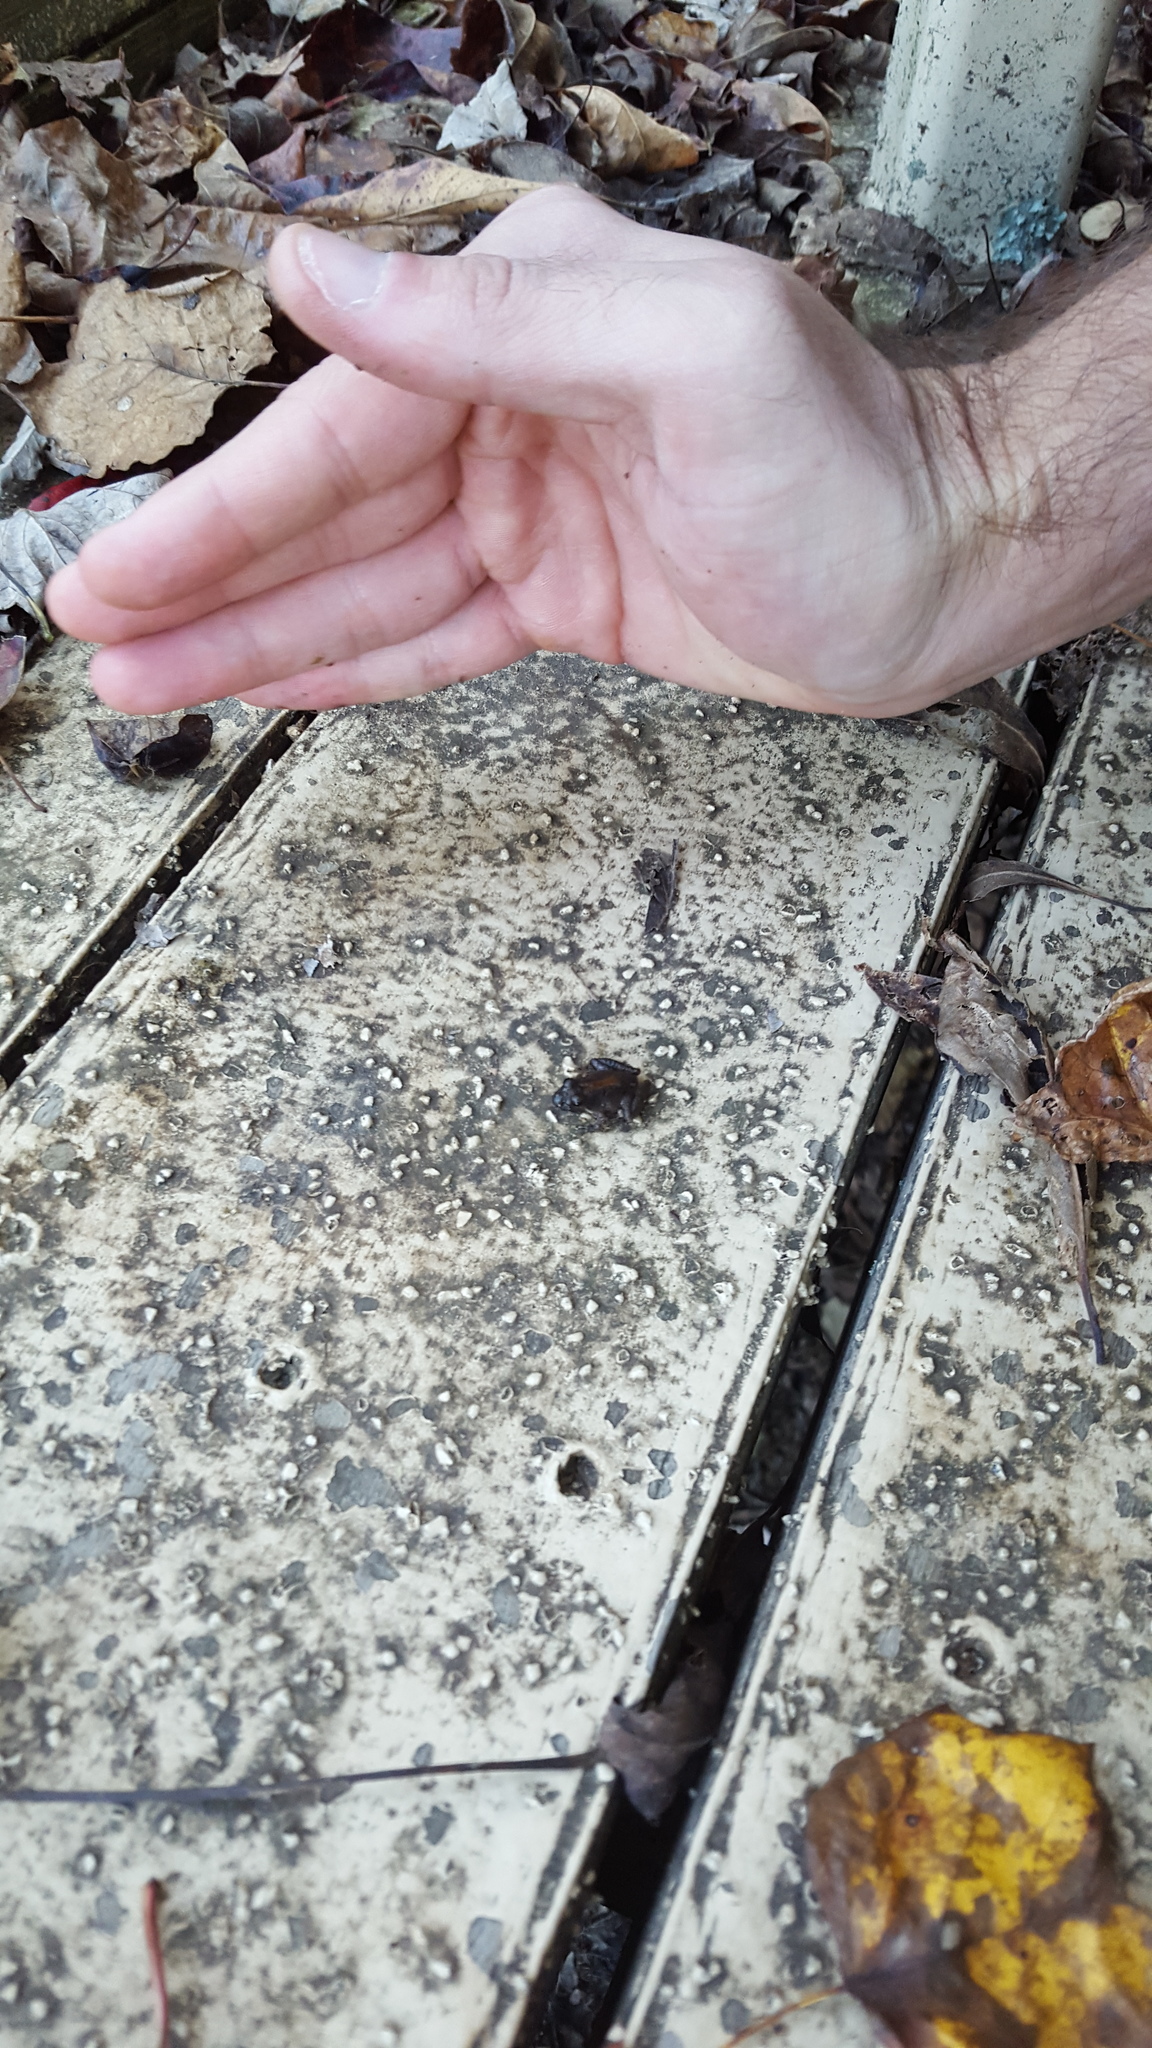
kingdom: Animalia
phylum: Chordata
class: Amphibia
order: Anura
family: Hylidae
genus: Acris
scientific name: Acris crepitans
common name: Northern cricket frog
